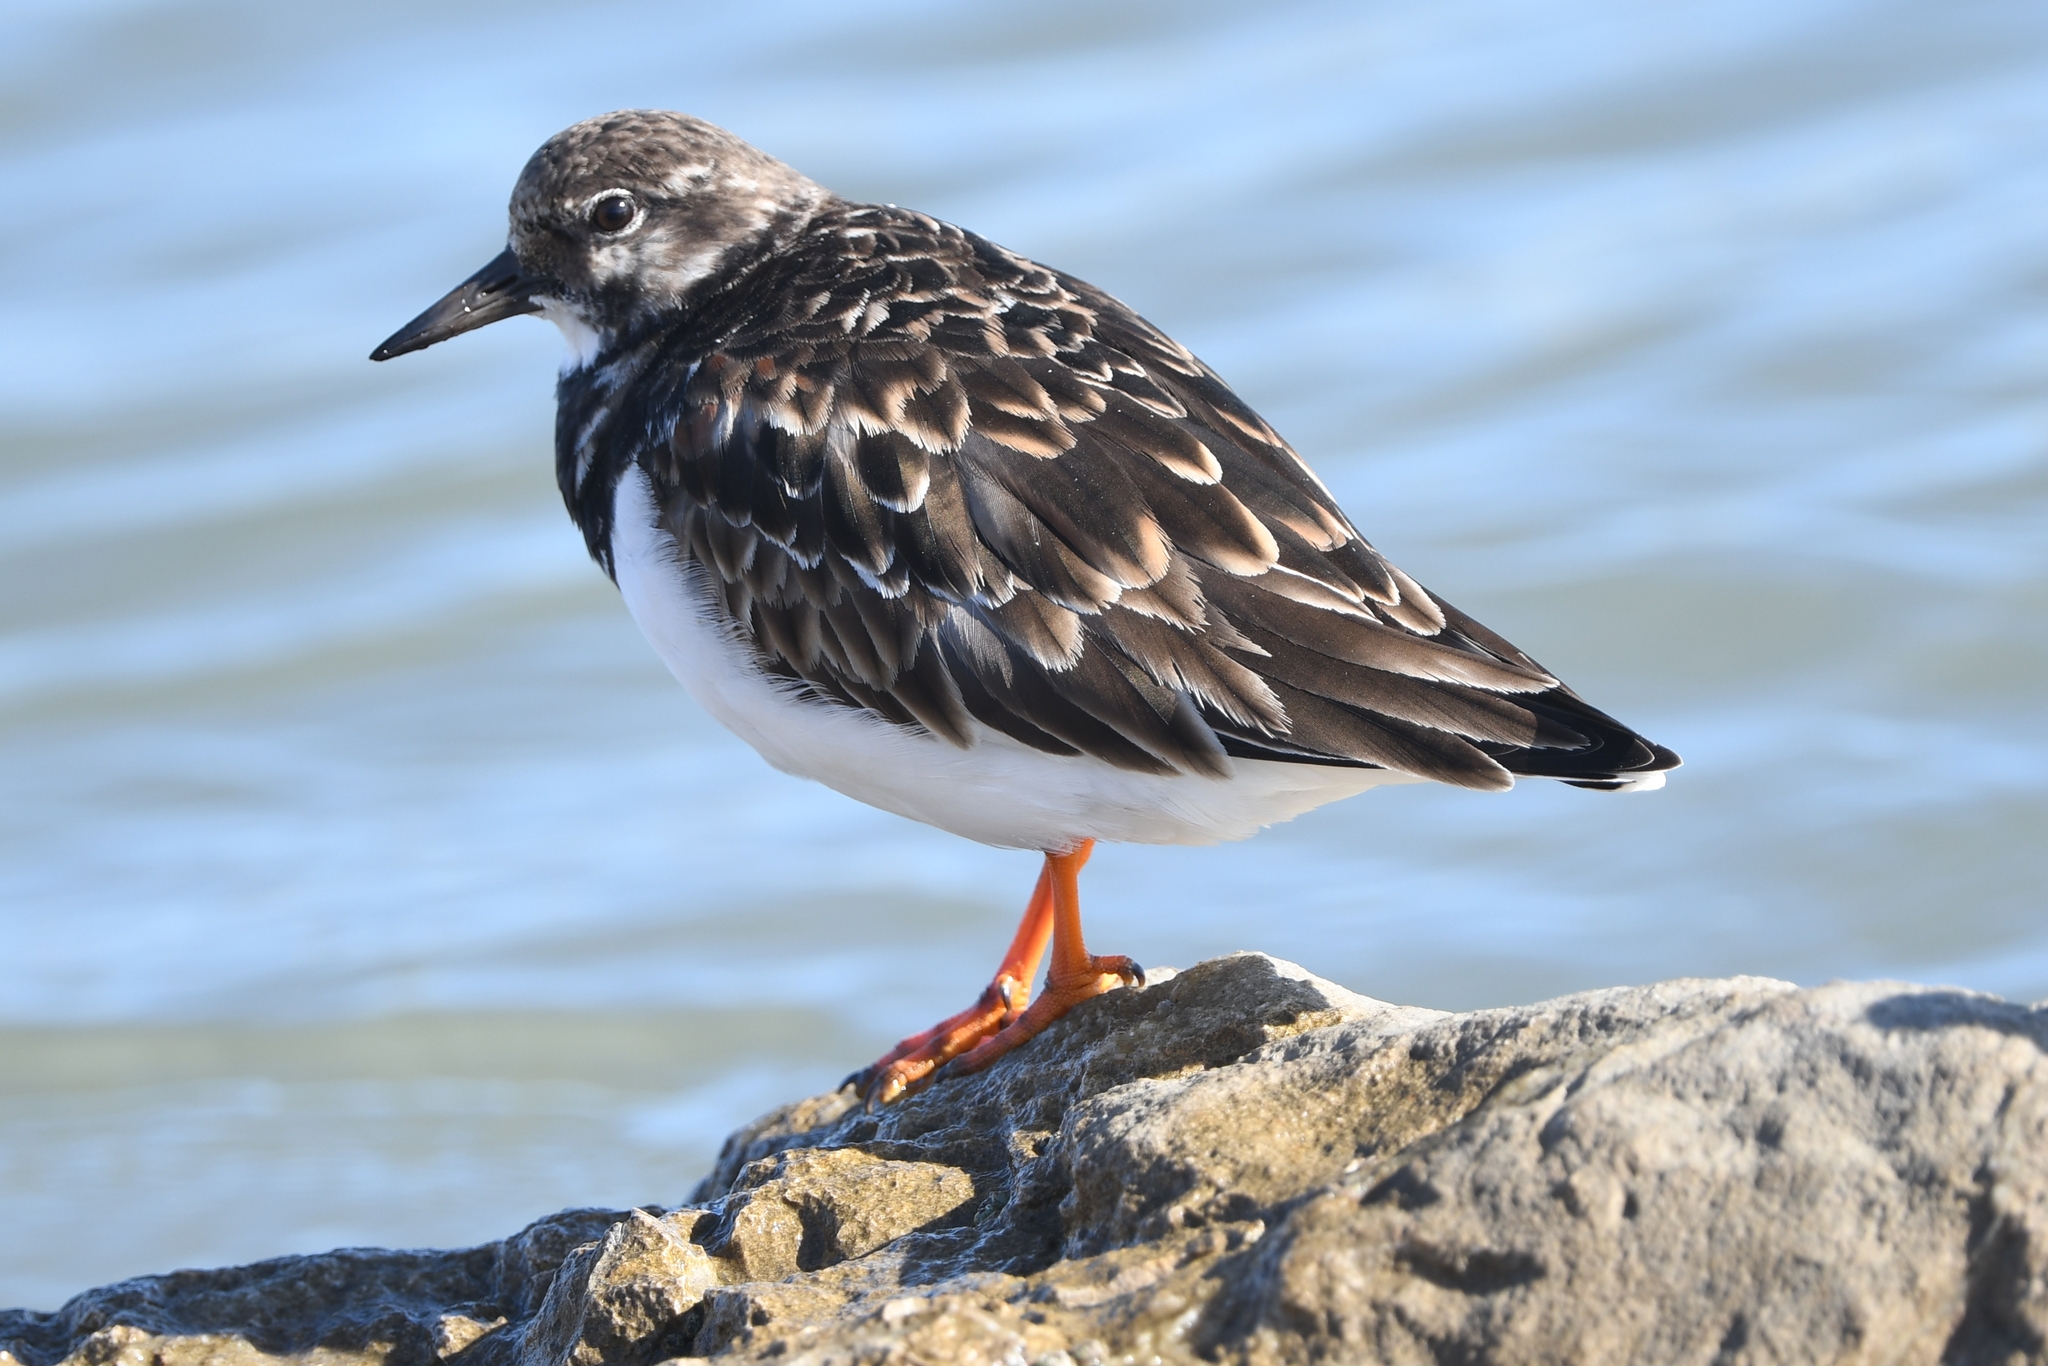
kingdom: Animalia
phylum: Chordata
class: Aves
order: Charadriiformes
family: Scolopacidae
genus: Arenaria
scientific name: Arenaria interpres
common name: Ruddy turnstone
